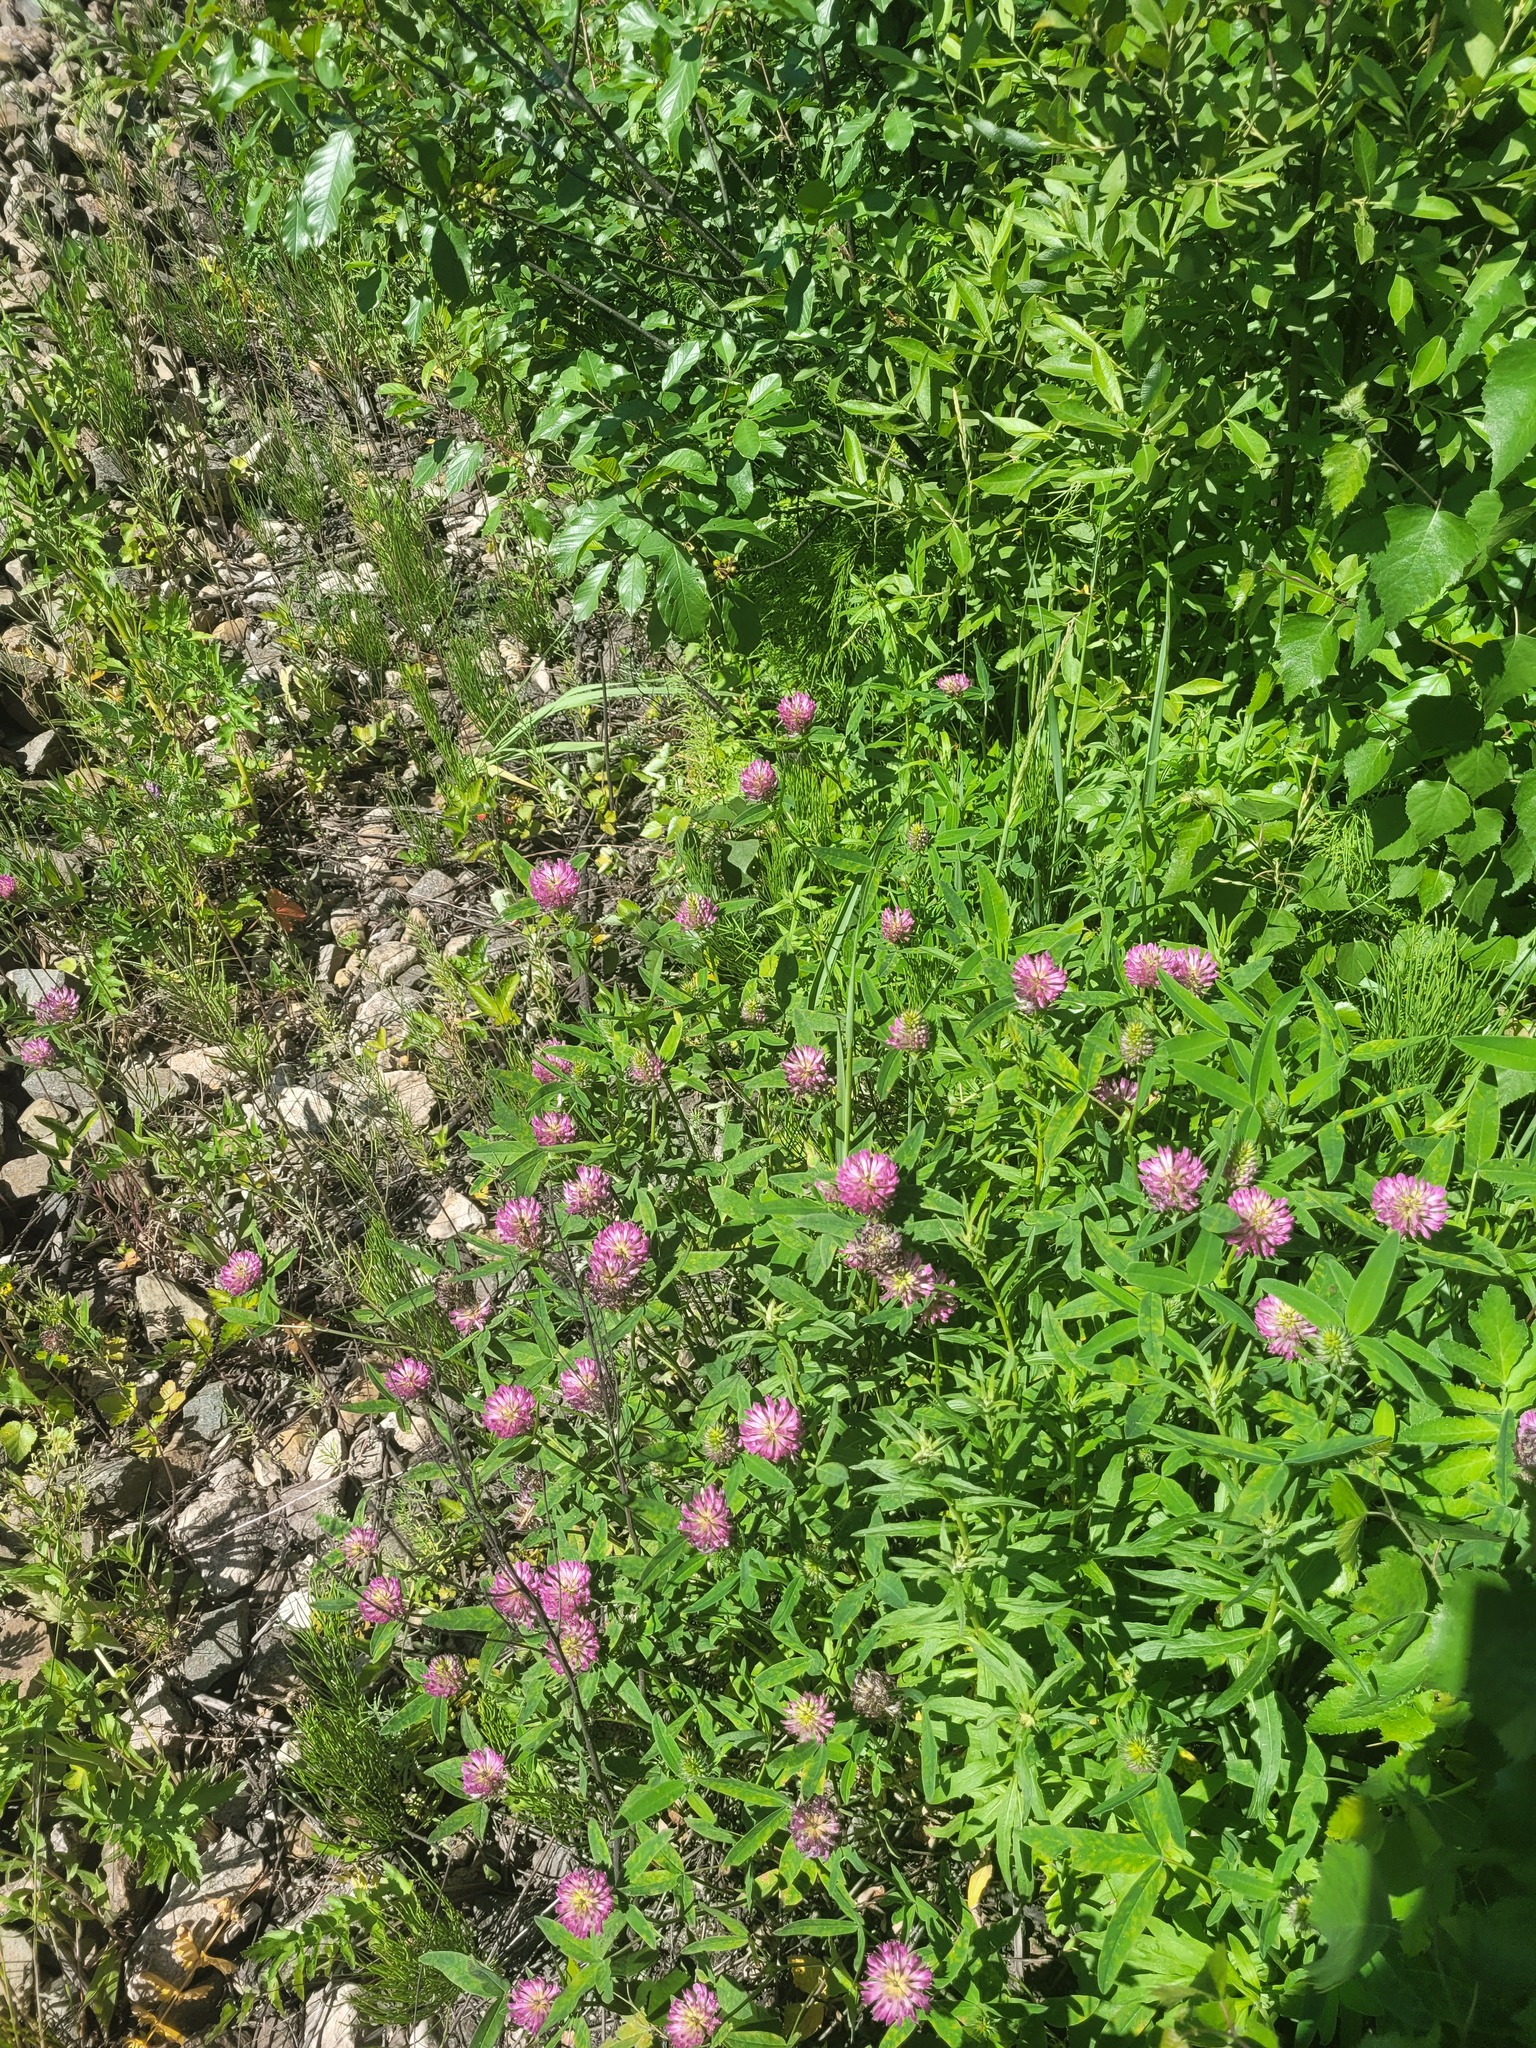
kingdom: Plantae
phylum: Tracheophyta
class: Magnoliopsida
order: Fabales
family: Fabaceae
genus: Trifolium
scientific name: Trifolium medium
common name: Zigzag clover
